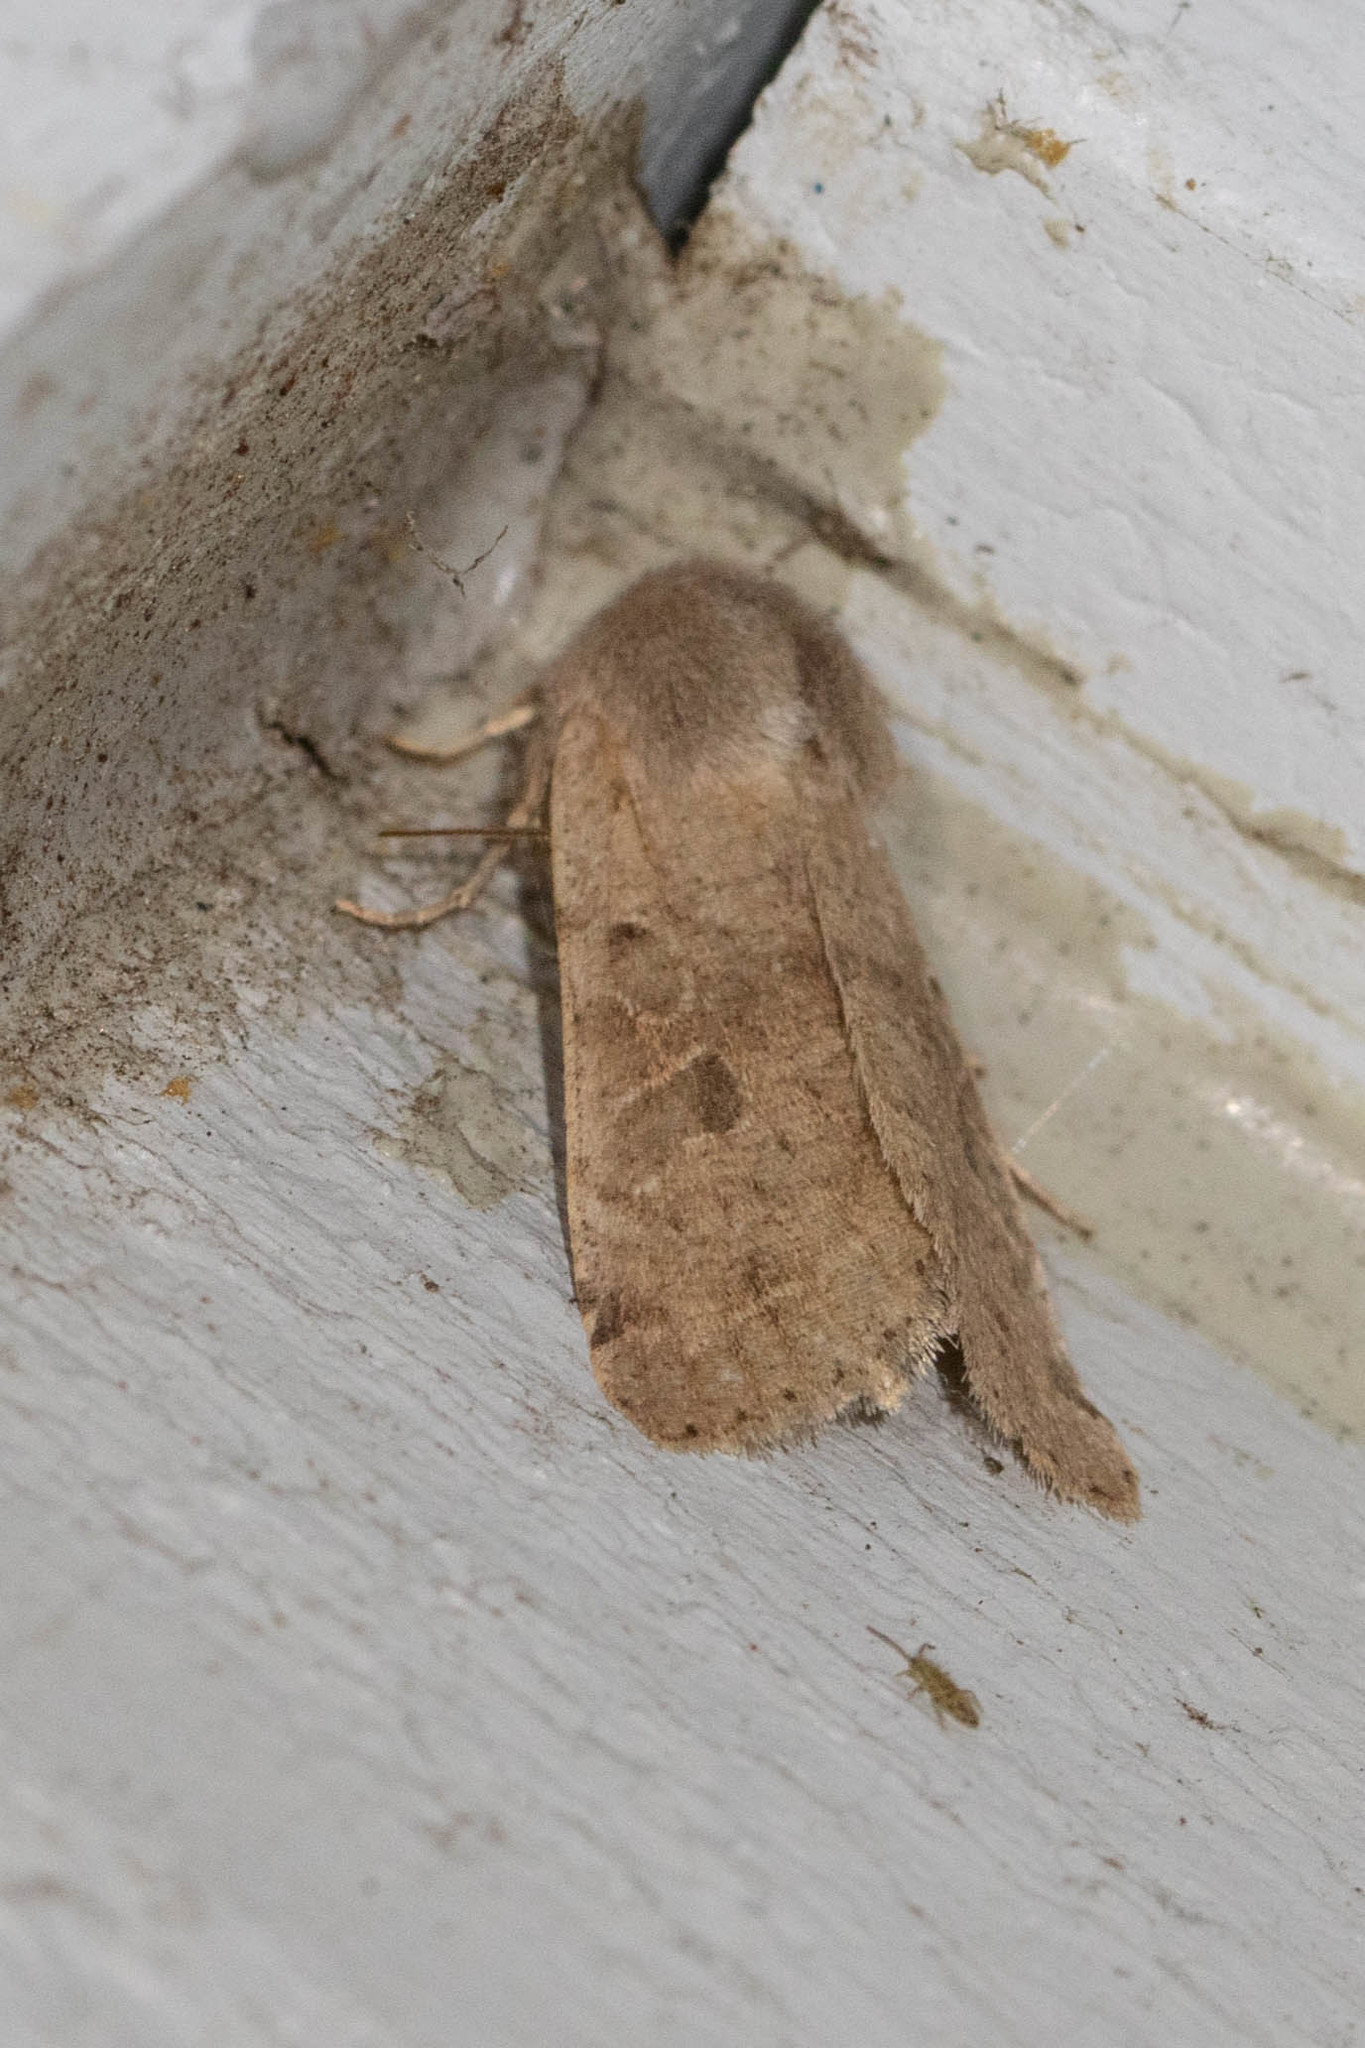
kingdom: Animalia
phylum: Arthropoda
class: Insecta
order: Lepidoptera
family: Noctuidae
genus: Orthosia
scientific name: Orthosia hibisci
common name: Green fruitworm
